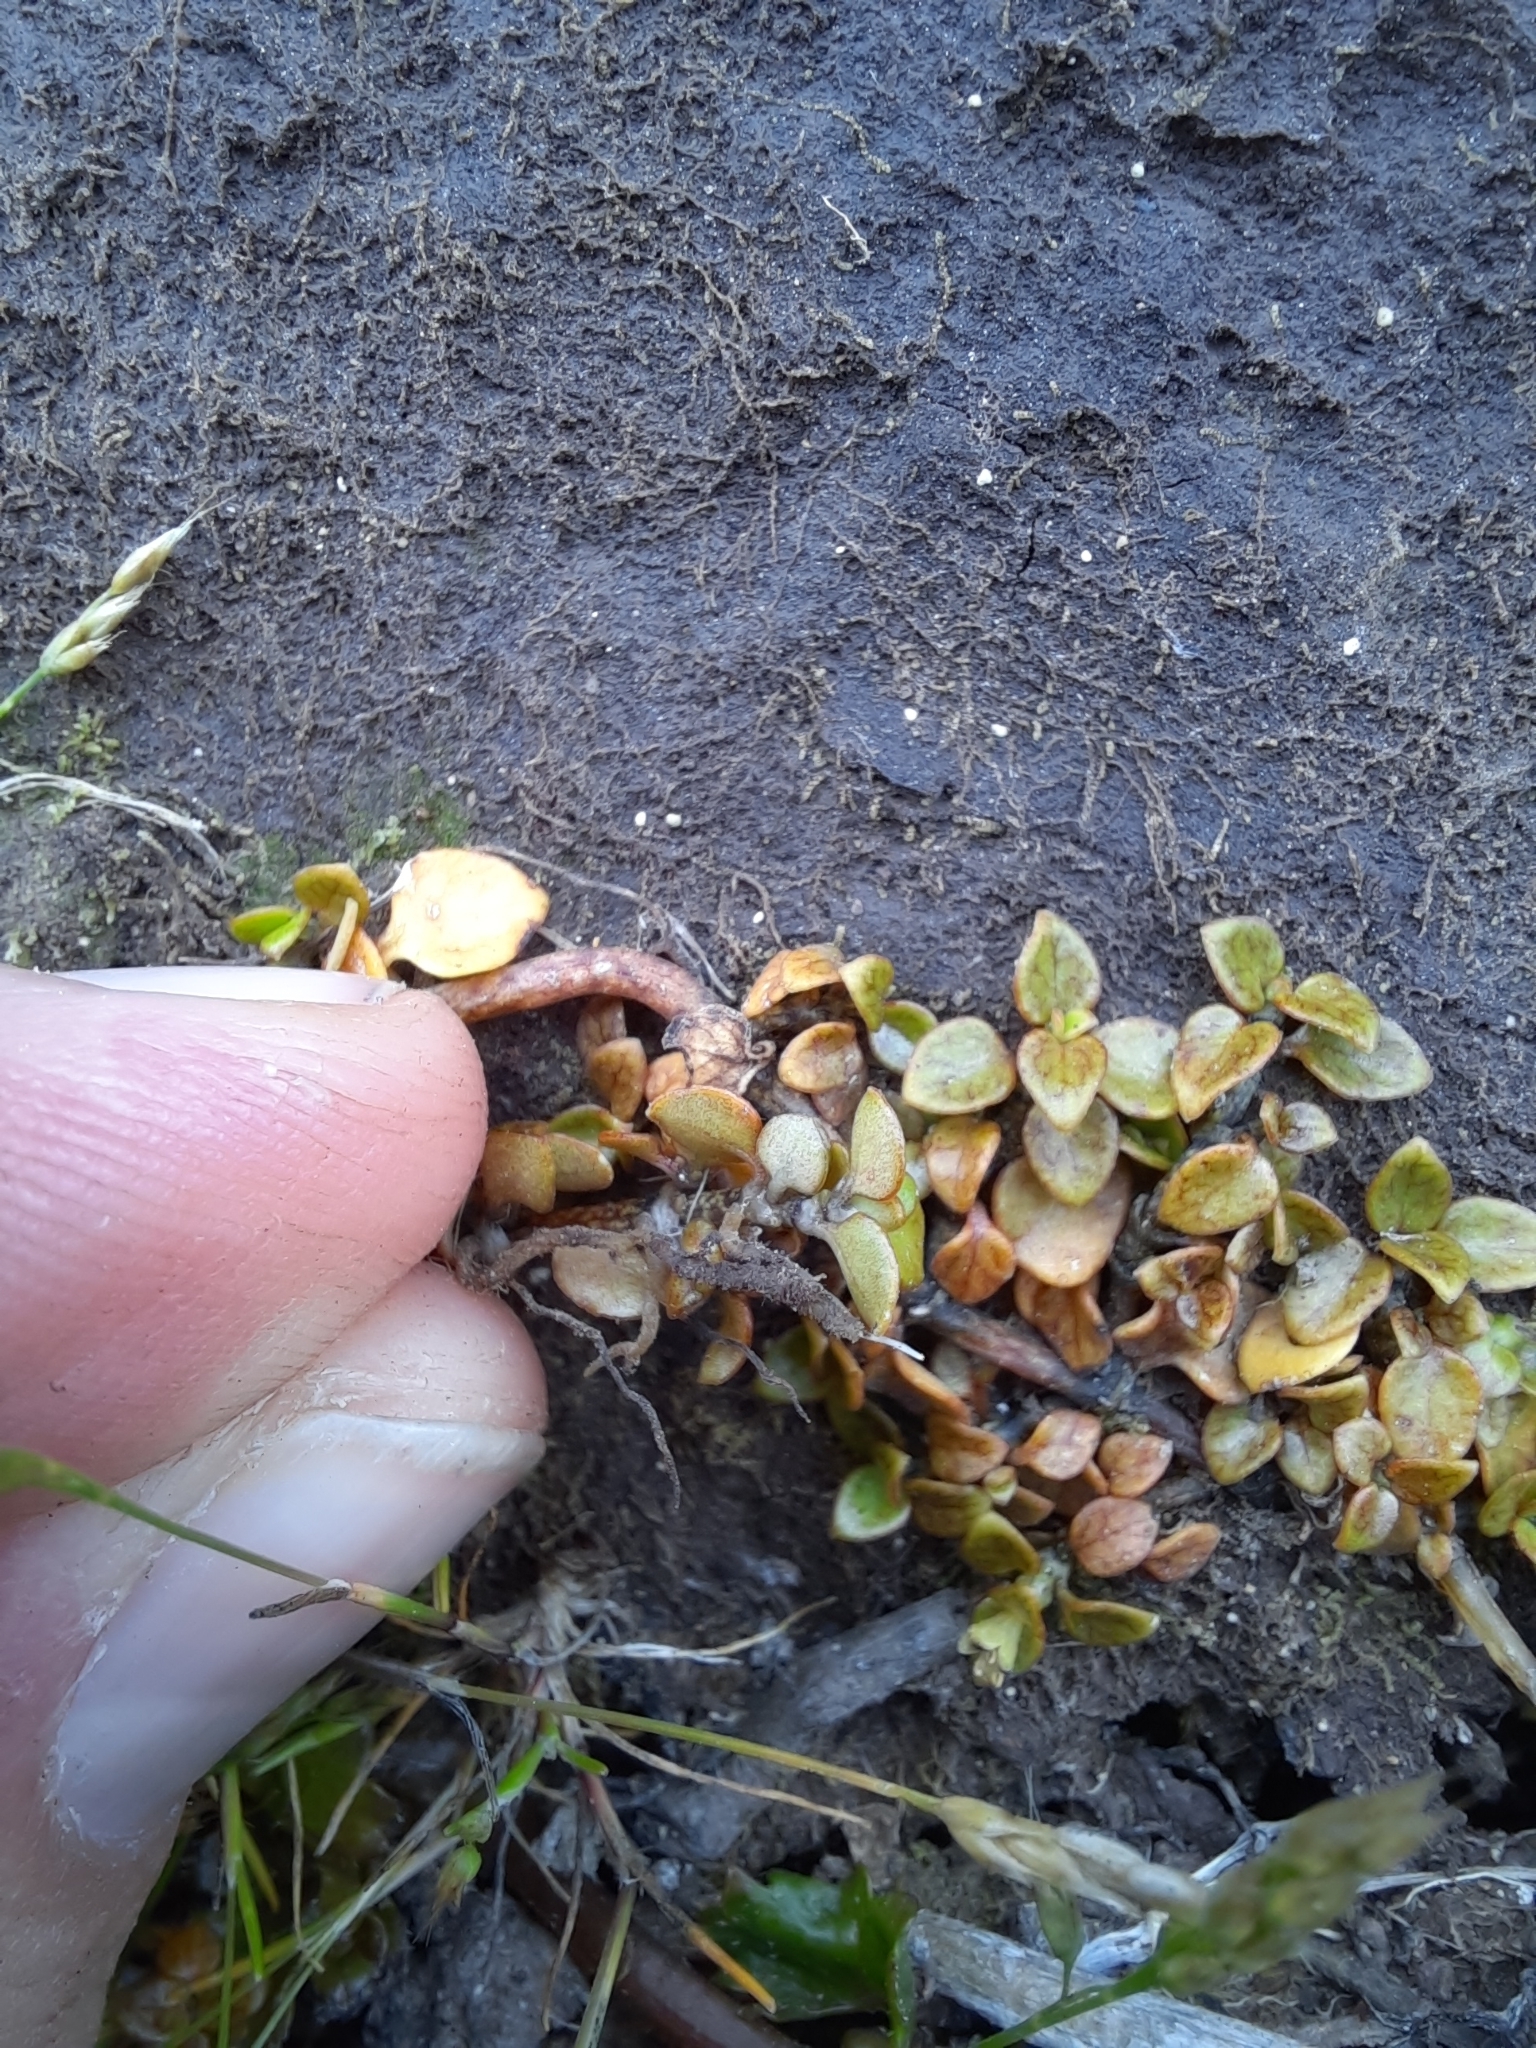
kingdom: Plantae
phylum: Tracheophyta
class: Magnoliopsida
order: Gentianales
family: Rubiaceae
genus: Nertera
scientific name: Nertera granadensis
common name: Beadplant
